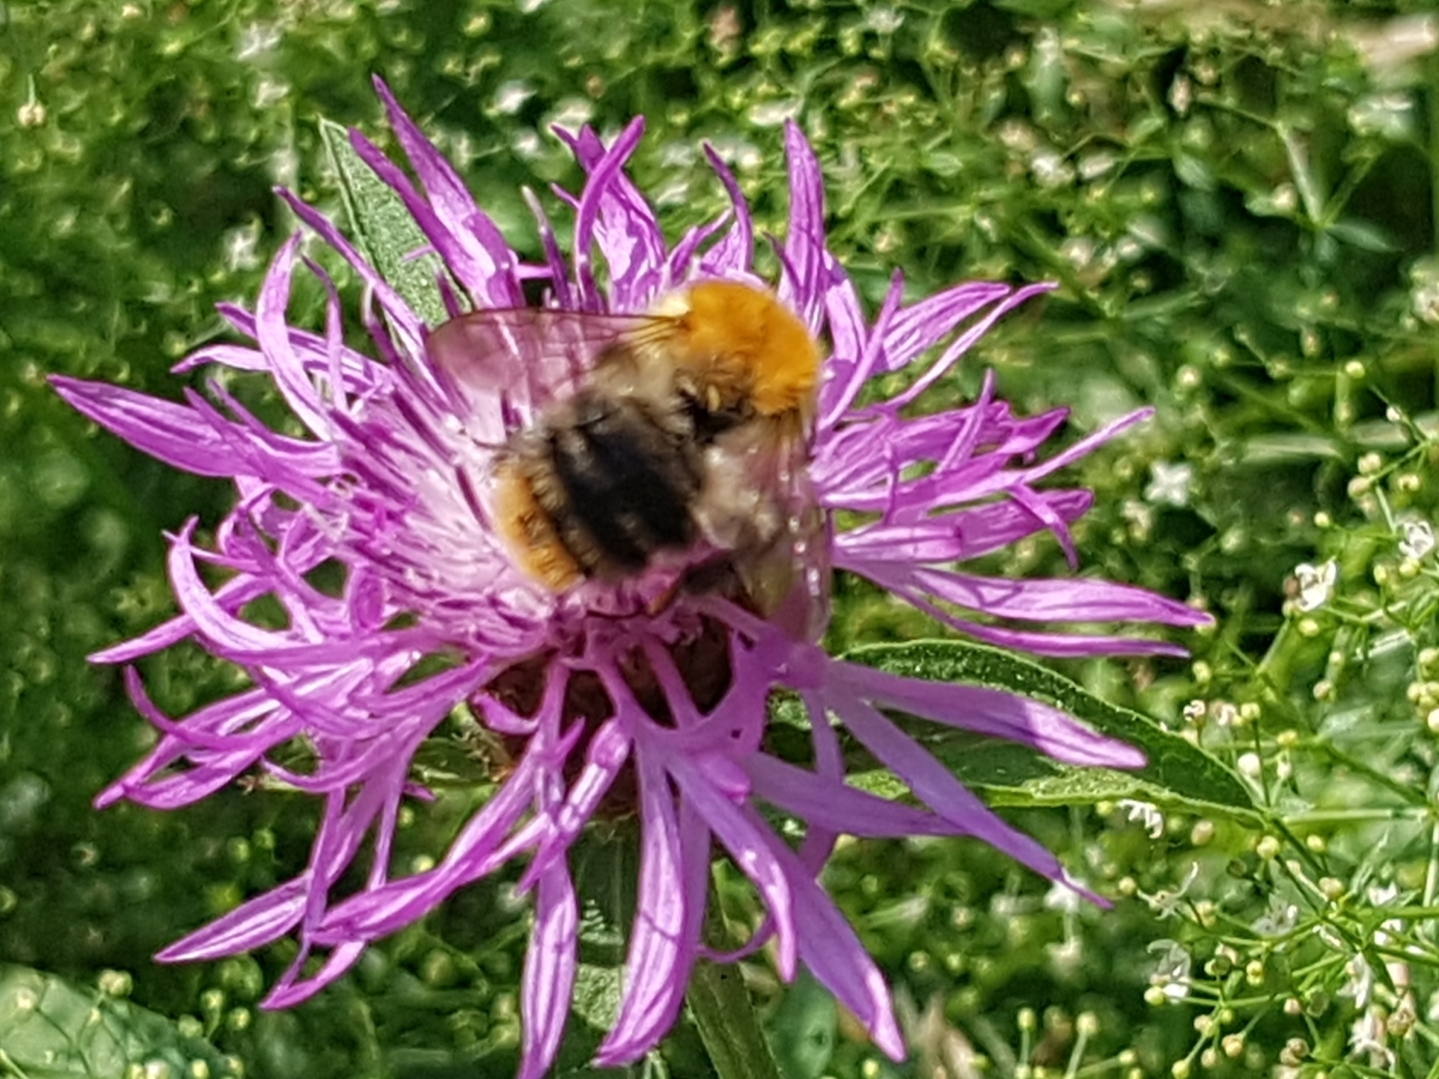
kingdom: Animalia
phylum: Arthropoda
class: Insecta
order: Hymenoptera
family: Apidae
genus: Bombus
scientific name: Bombus pascuorum
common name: Common carder bee
